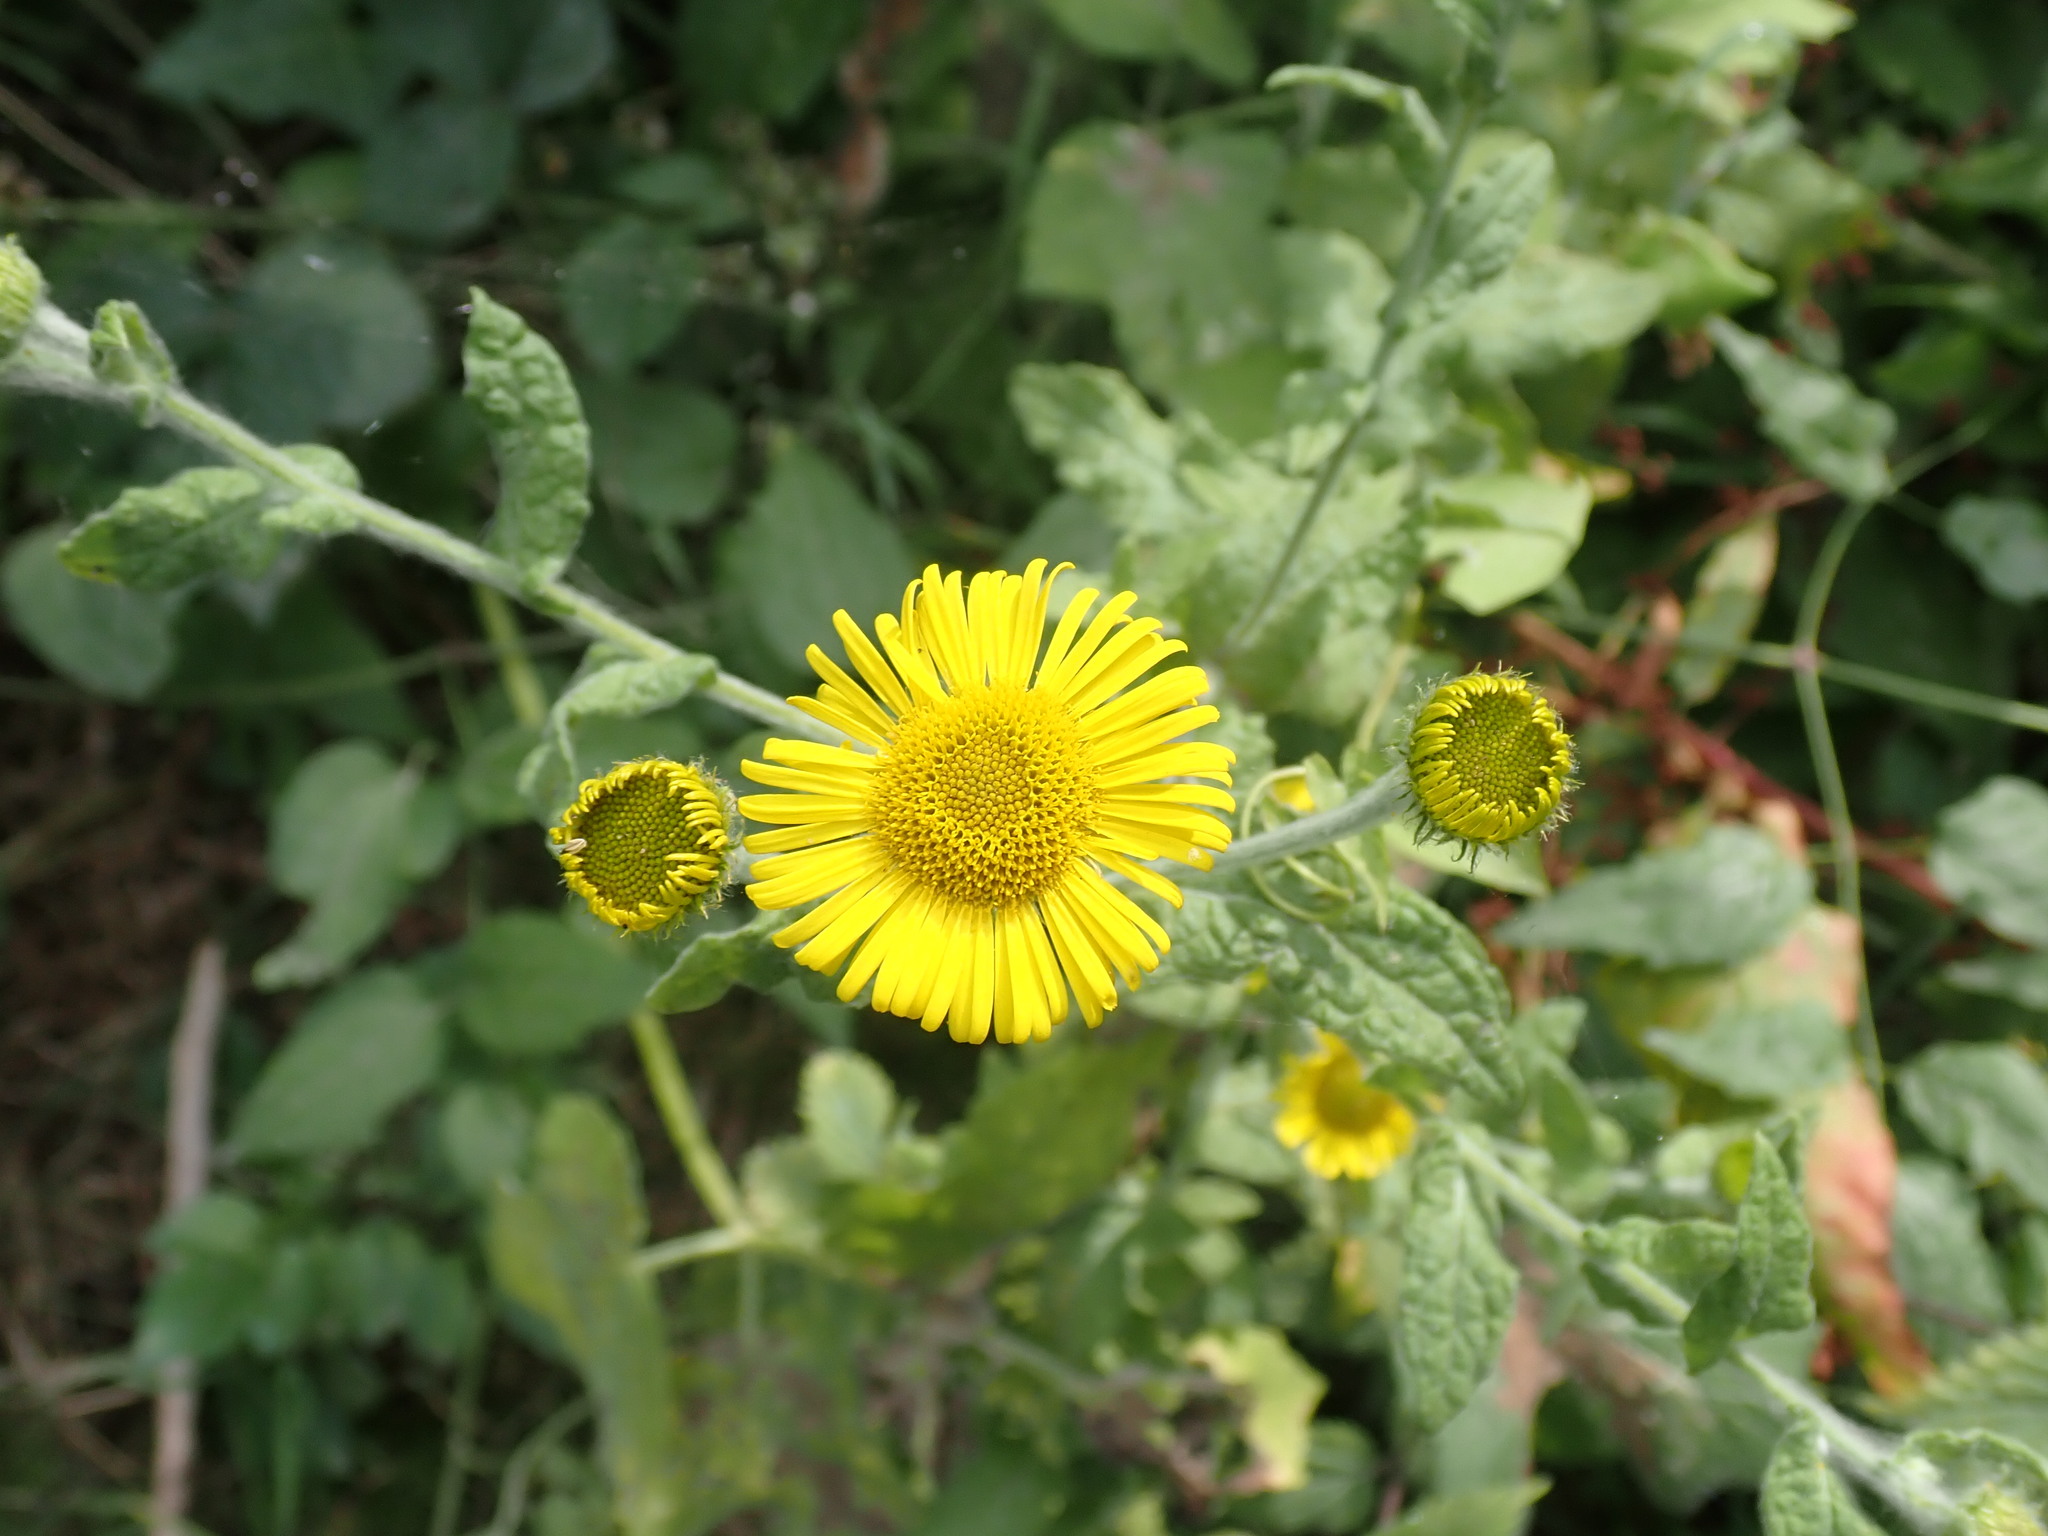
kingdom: Plantae
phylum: Tracheophyta
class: Magnoliopsida
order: Asterales
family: Asteraceae
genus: Pulicaria
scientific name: Pulicaria dysenterica
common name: Common fleabane
